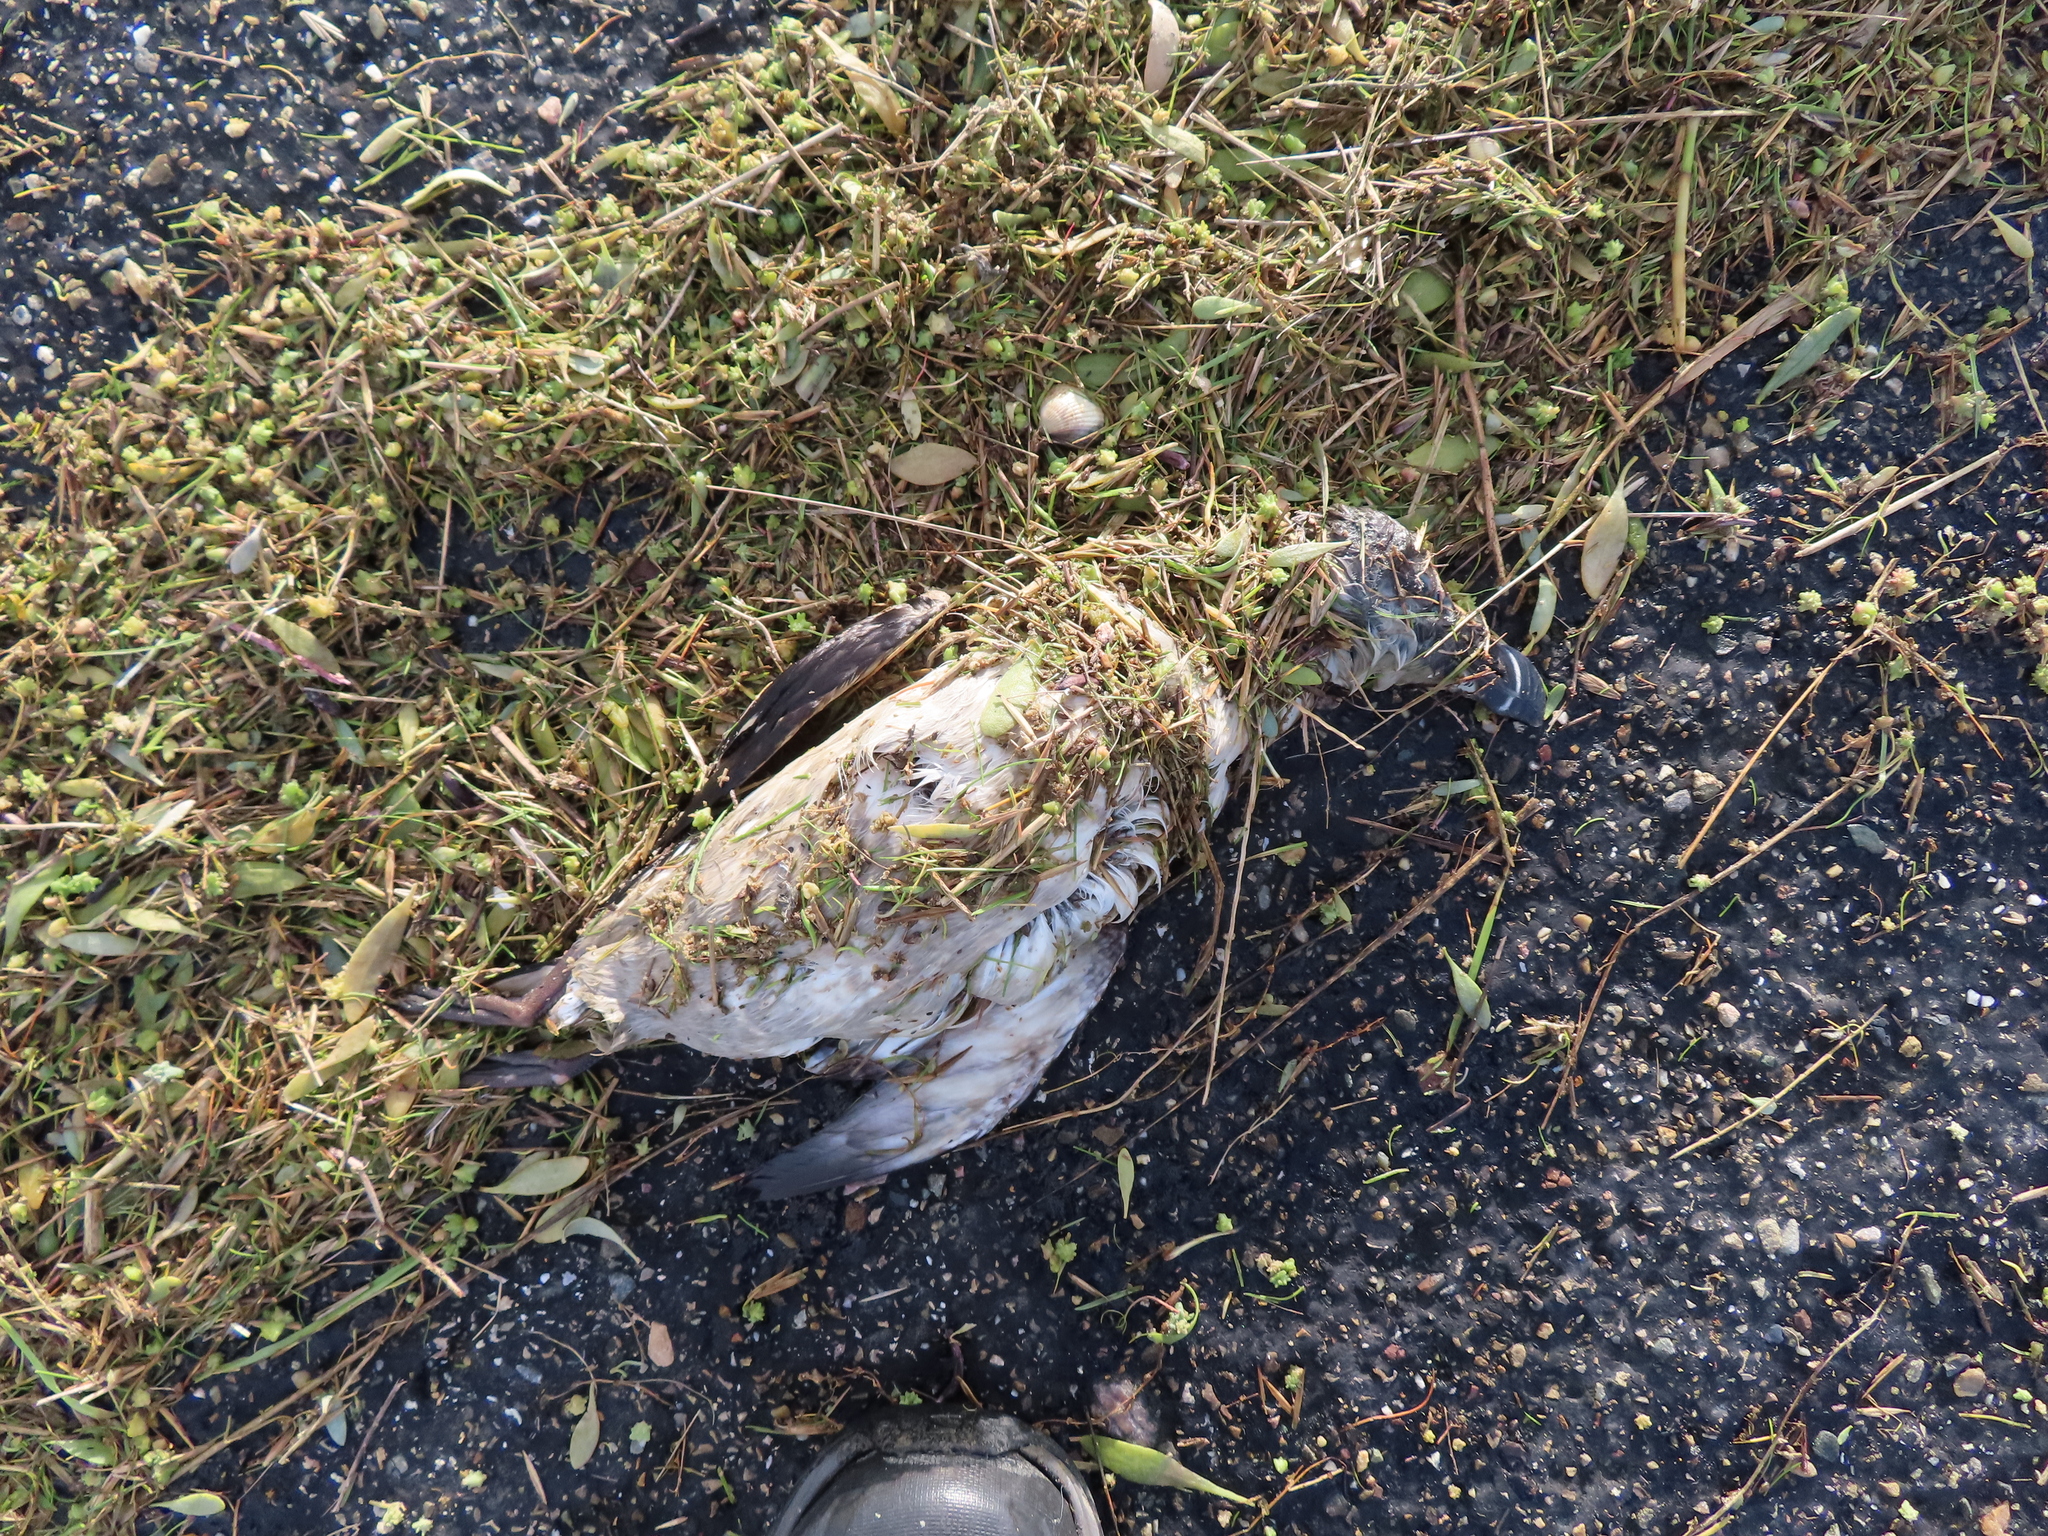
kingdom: Animalia
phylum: Chordata
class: Aves
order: Charadriiformes
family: Alcidae
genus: Alca
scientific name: Alca torda
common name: Razorbill
